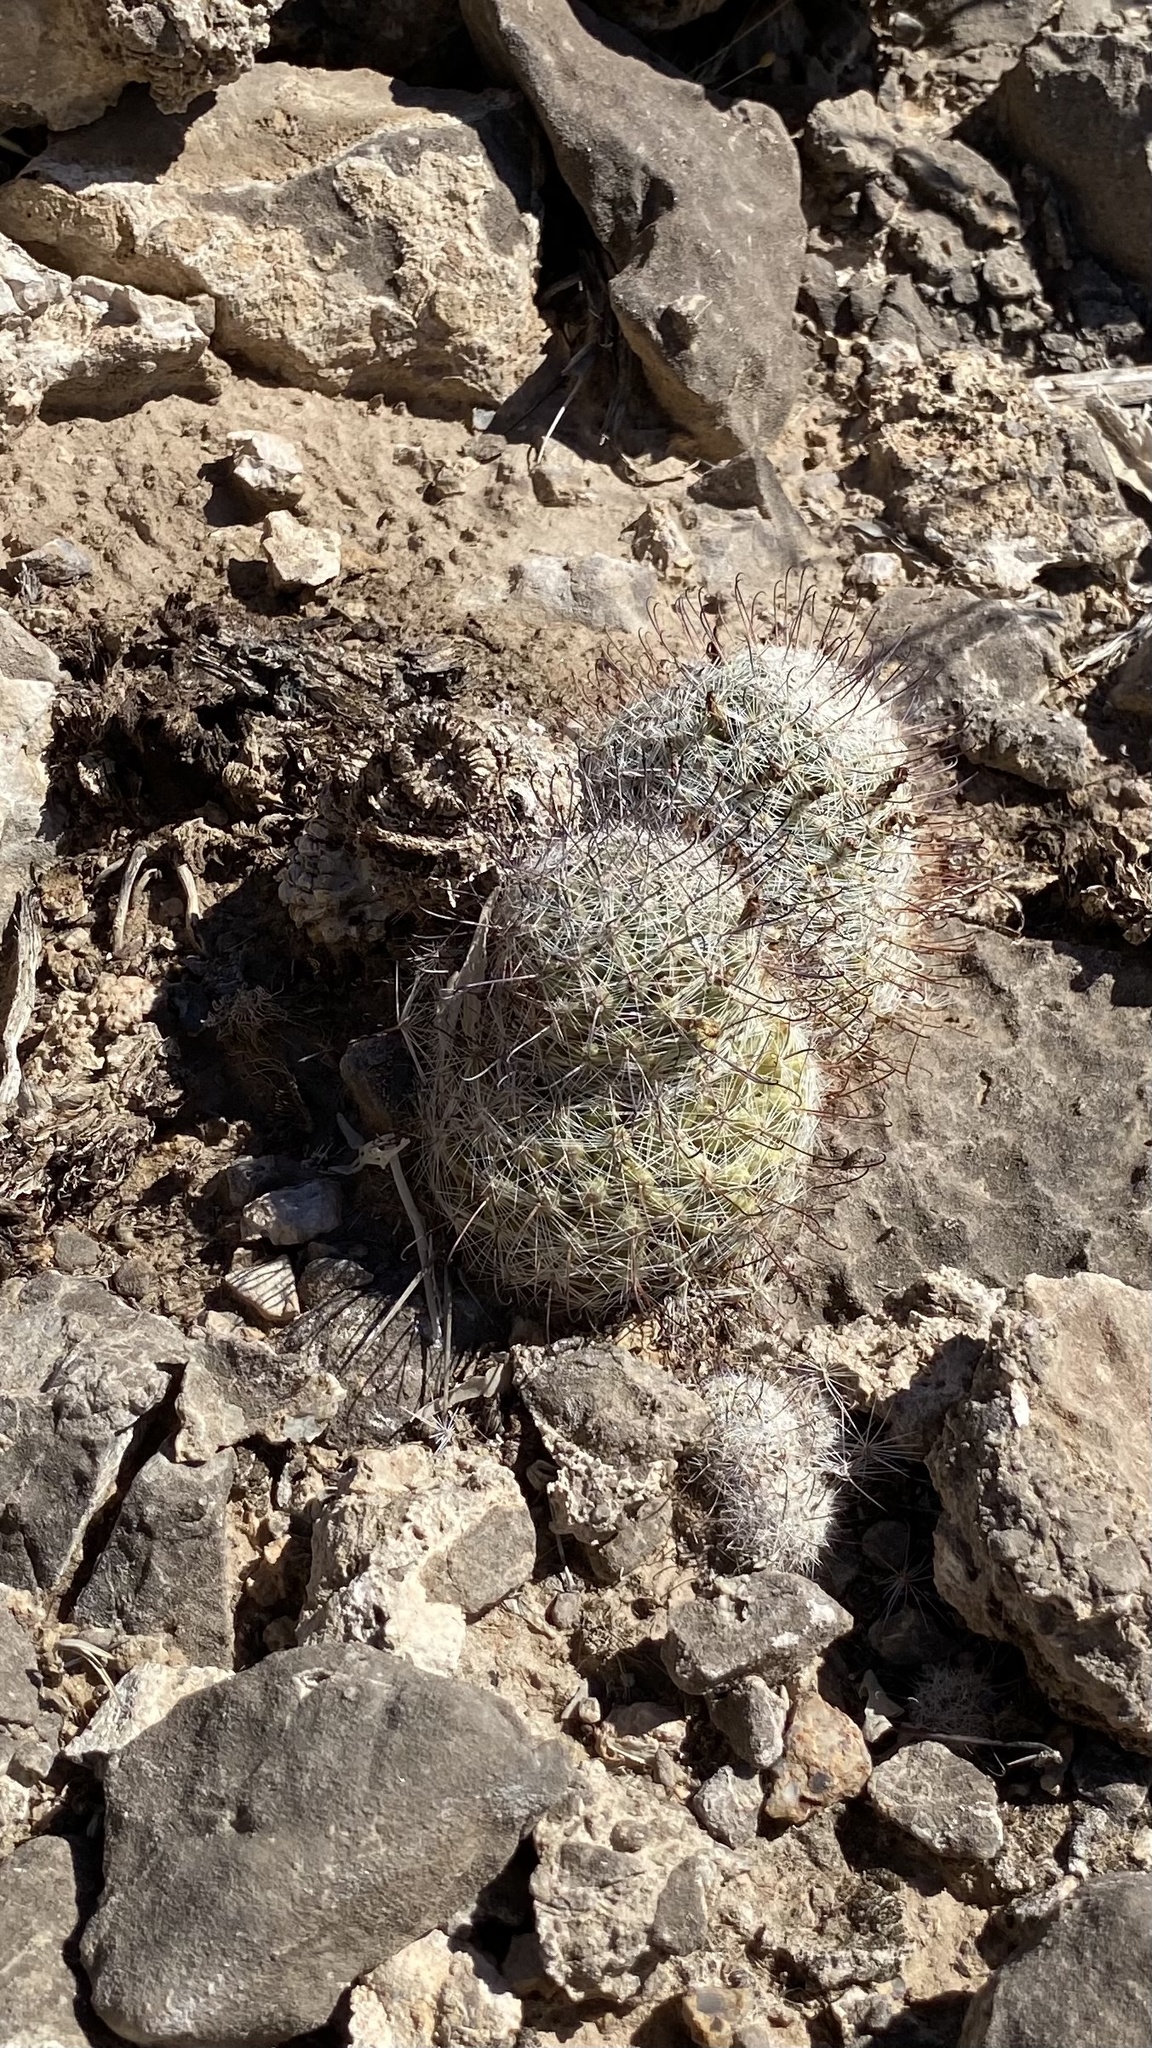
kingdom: Plantae
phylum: Tracheophyta
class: Magnoliopsida
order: Caryophyllales
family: Cactaceae
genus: Cochemiea
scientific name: Cochemiea grahamii
